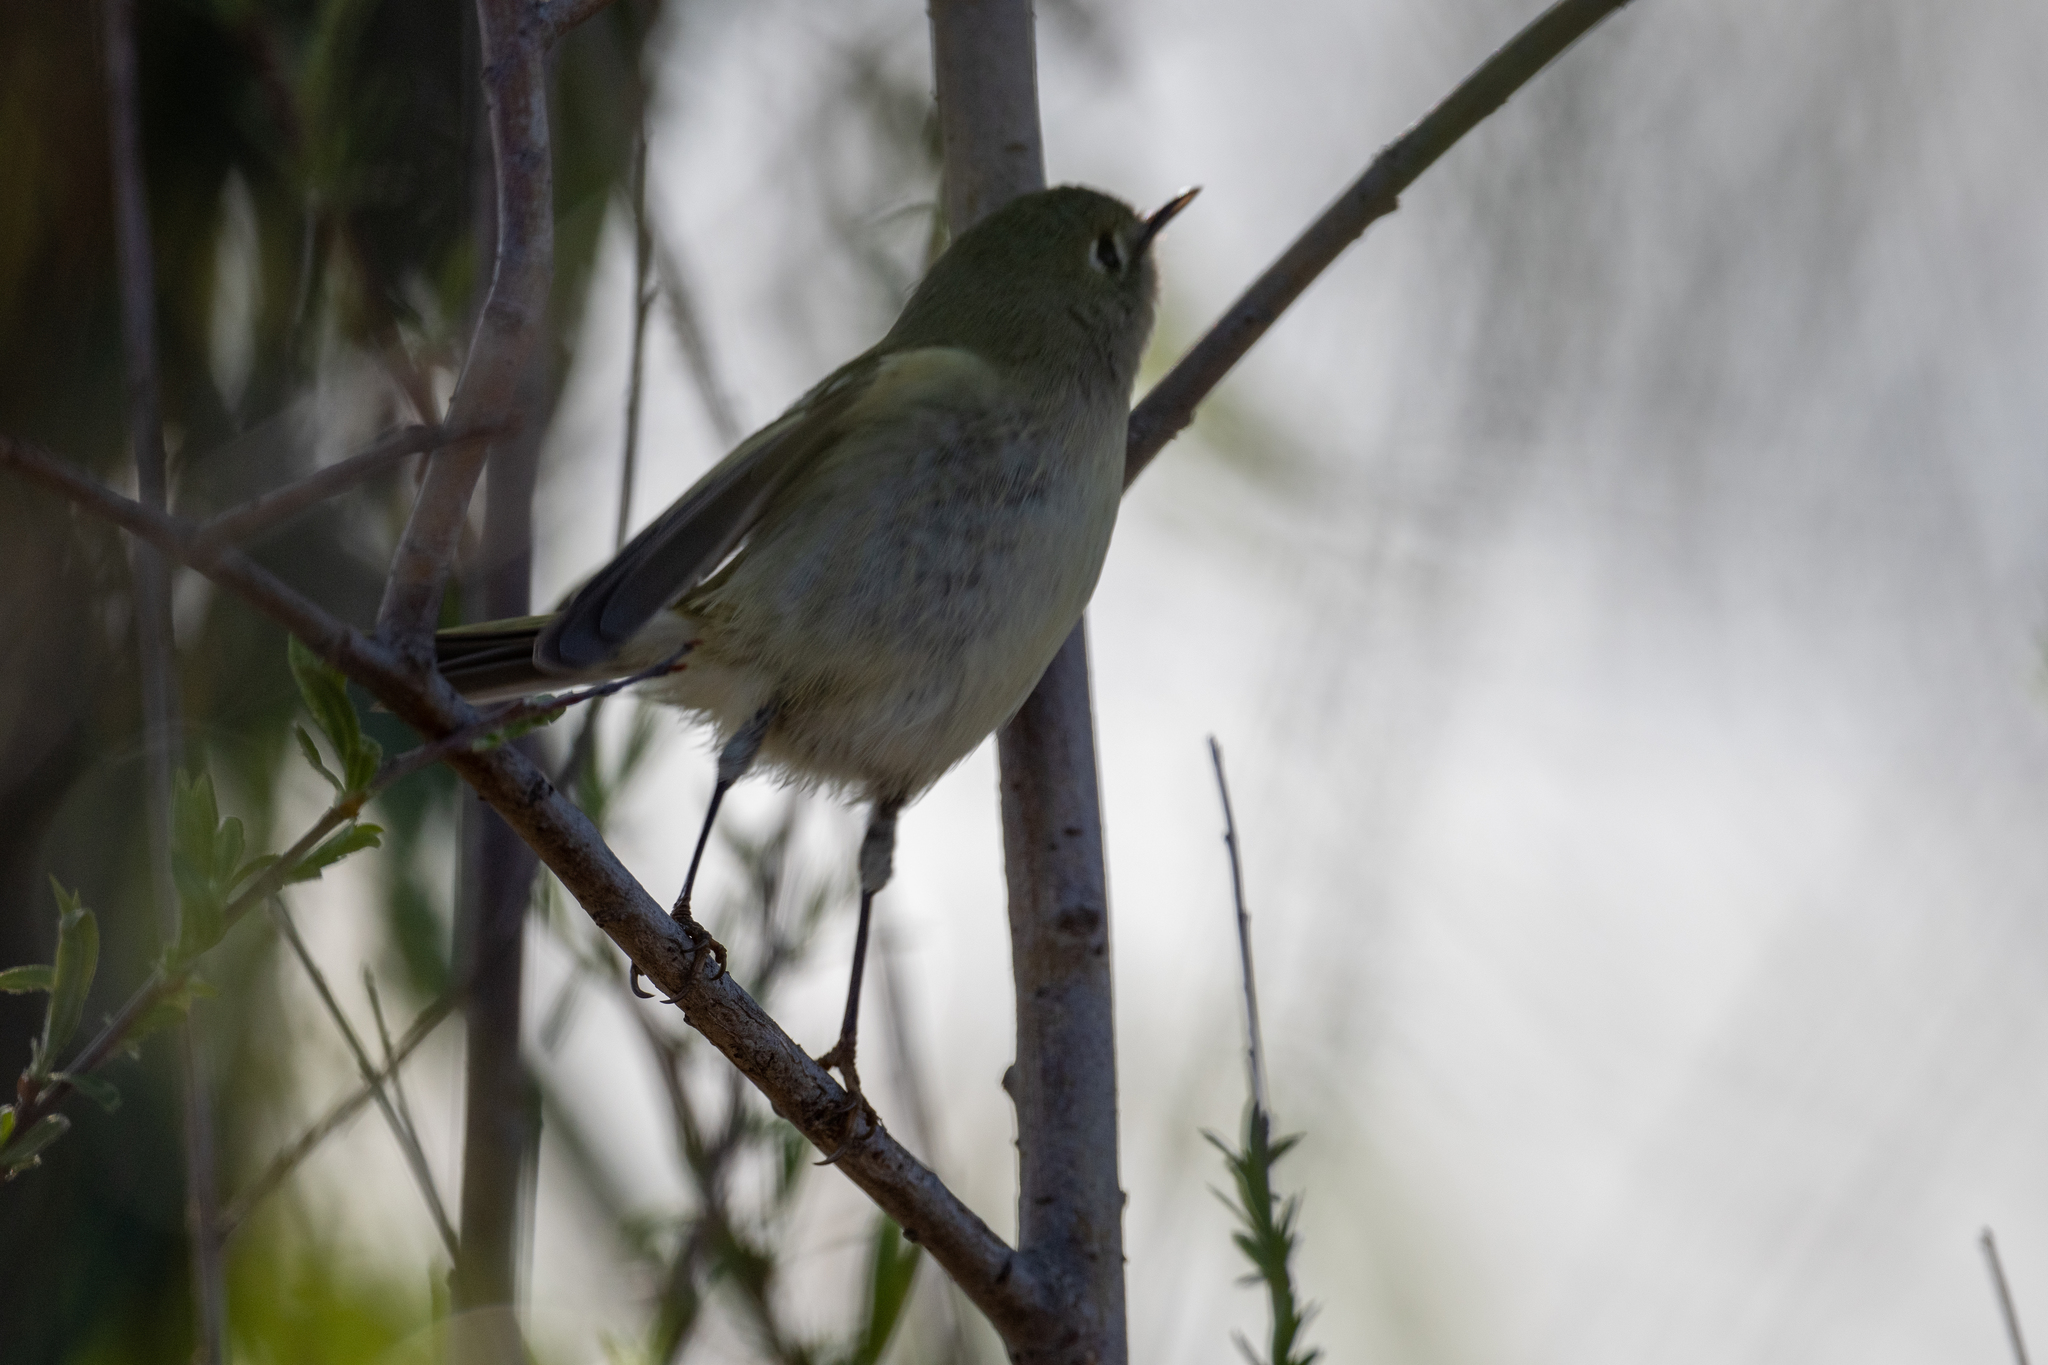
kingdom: Animalia
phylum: Chordata
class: Aves
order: Passeriformes
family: Regulidae
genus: Regulus
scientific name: Regulus calendula
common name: Ruby-crowned kinglet
